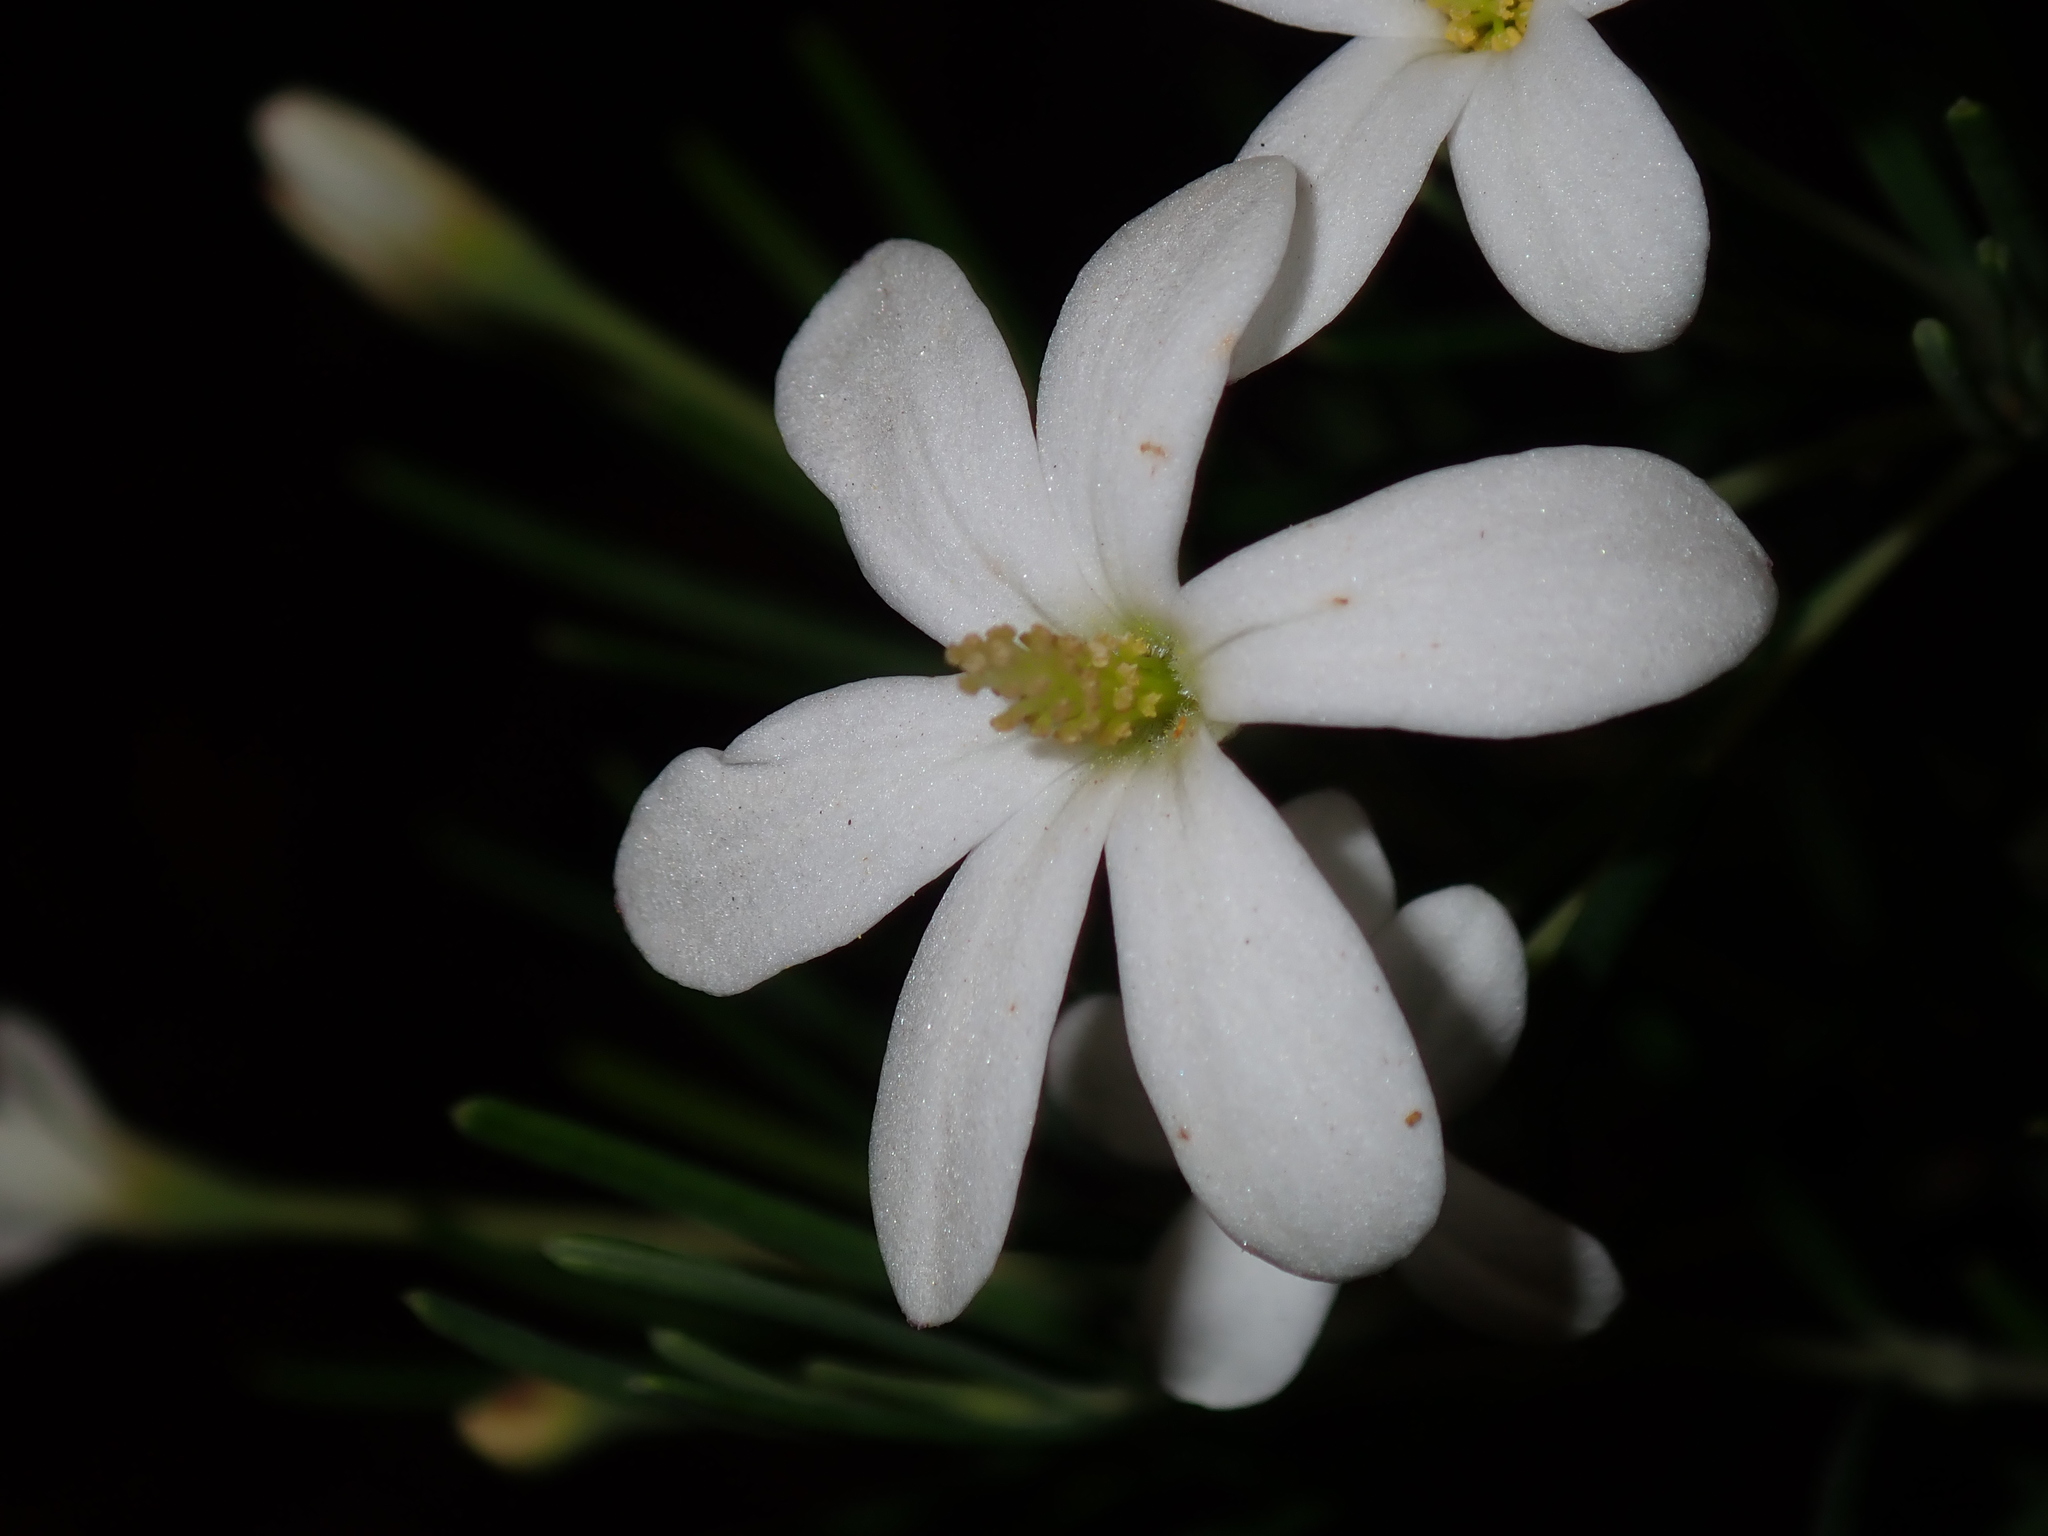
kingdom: Plantae
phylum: Tracheophyta
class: Magnoliopsida
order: Malpighiales
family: Euphorbiaceae
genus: Ricinocarpos
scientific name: Ricinocarpos pinifolius
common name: Weddingbush
